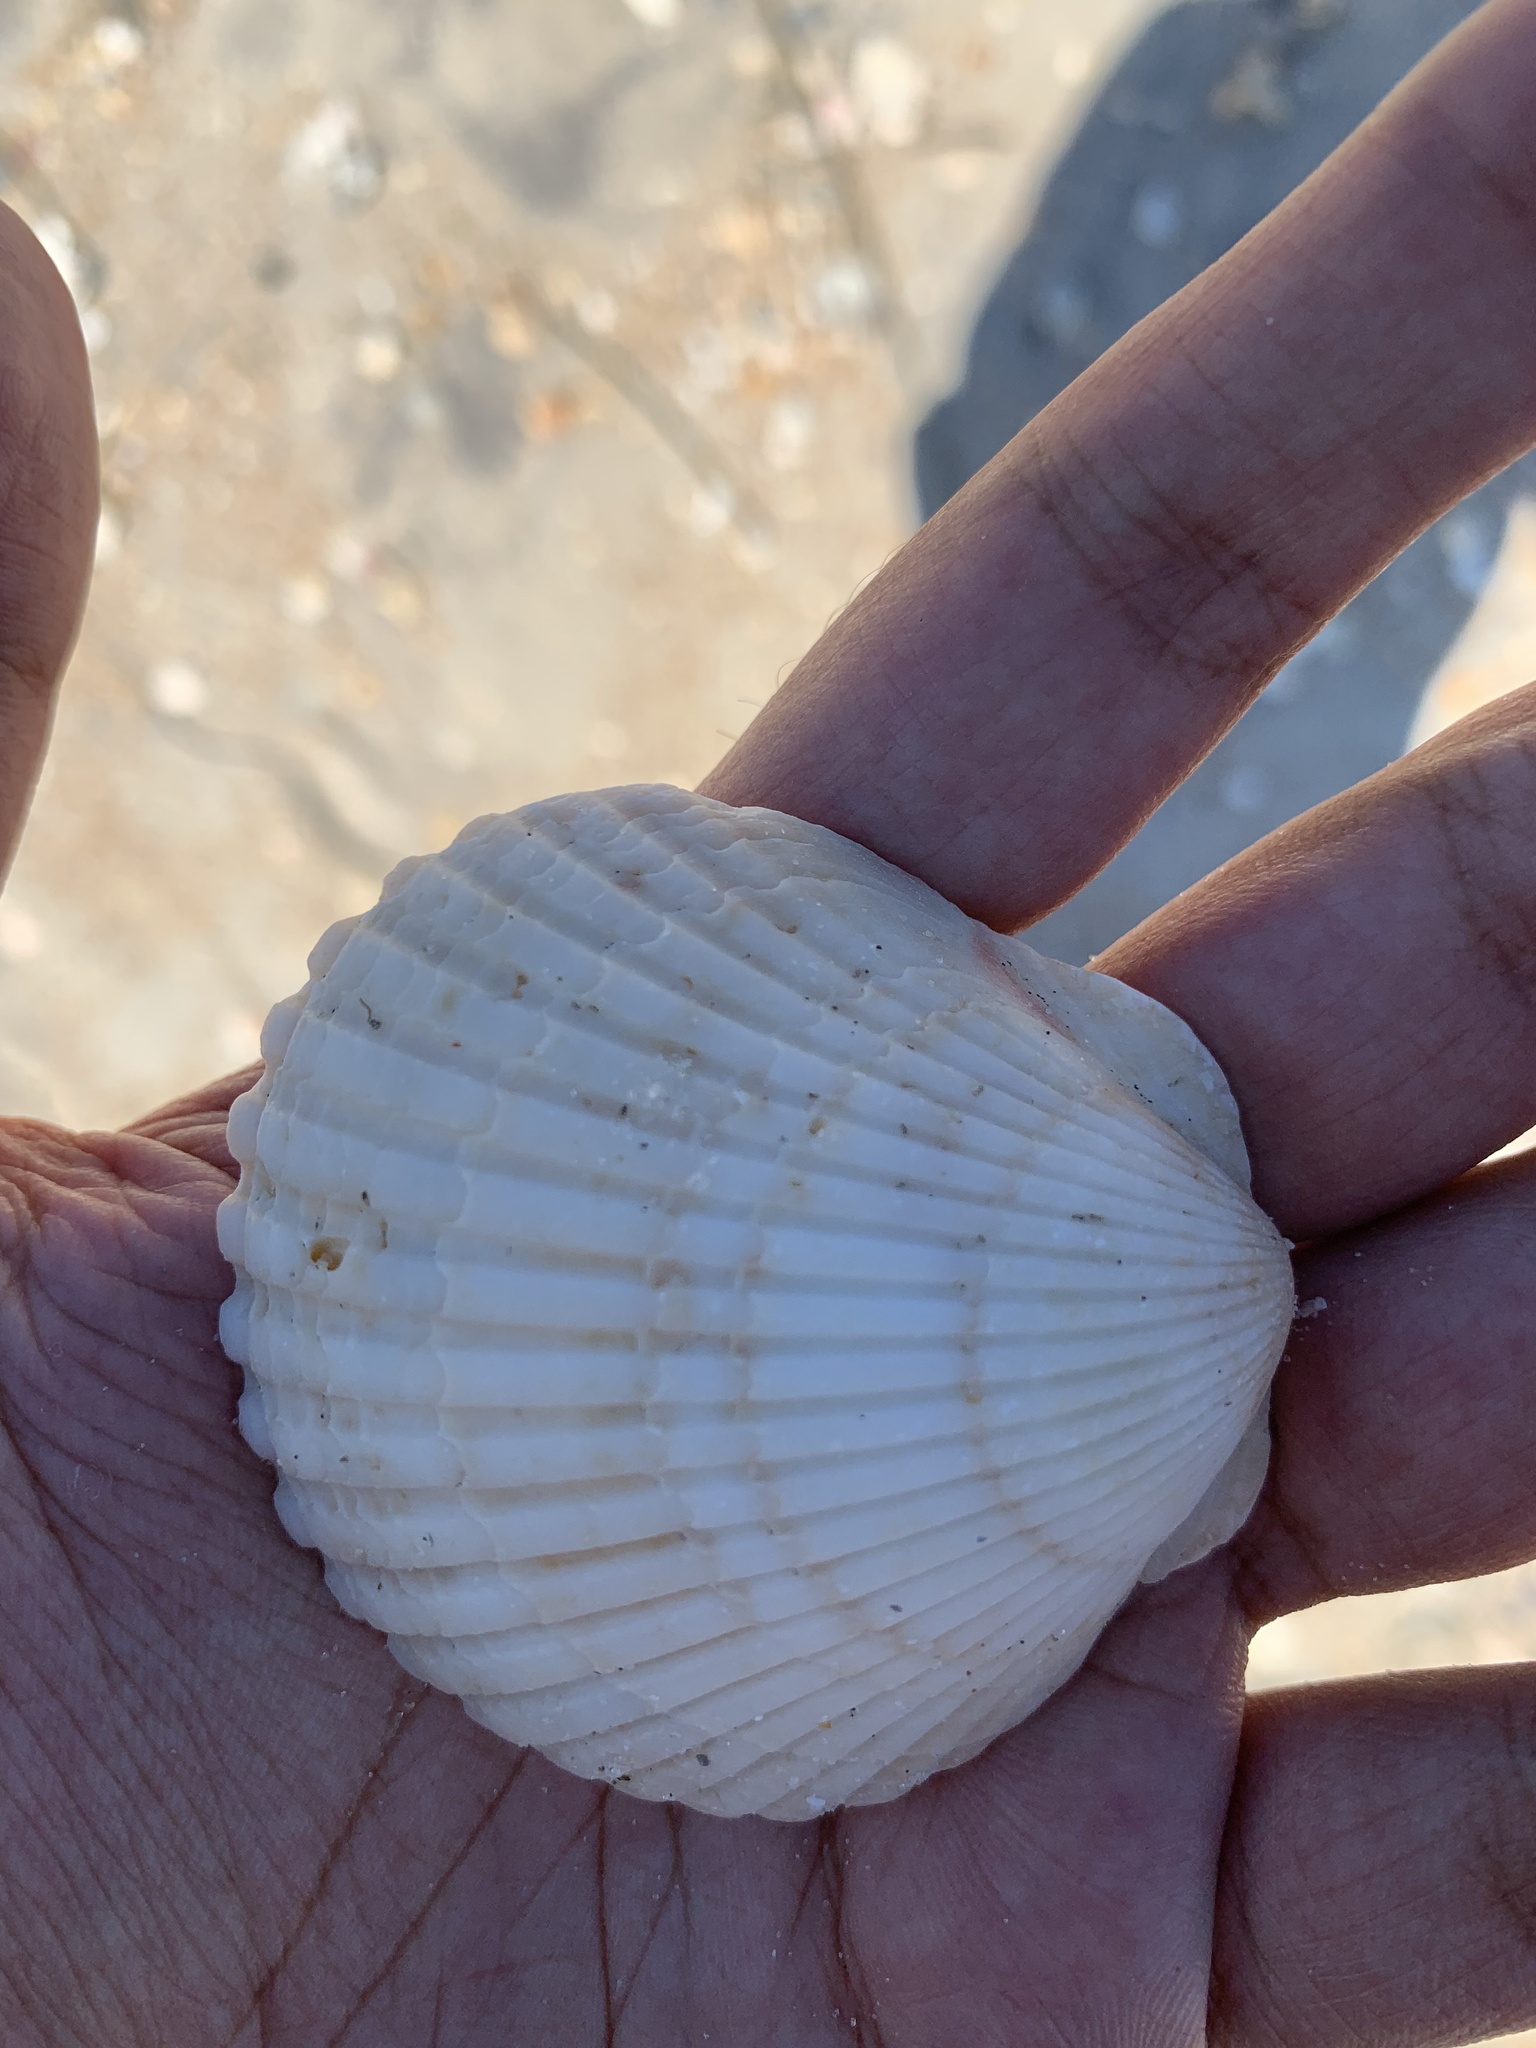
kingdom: Animalia
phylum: Mollusca
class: Bivalvia
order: Pectinida
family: Pectinidae
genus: Argopecten
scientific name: Argopecten irradians
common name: Atlantic bay scallop
